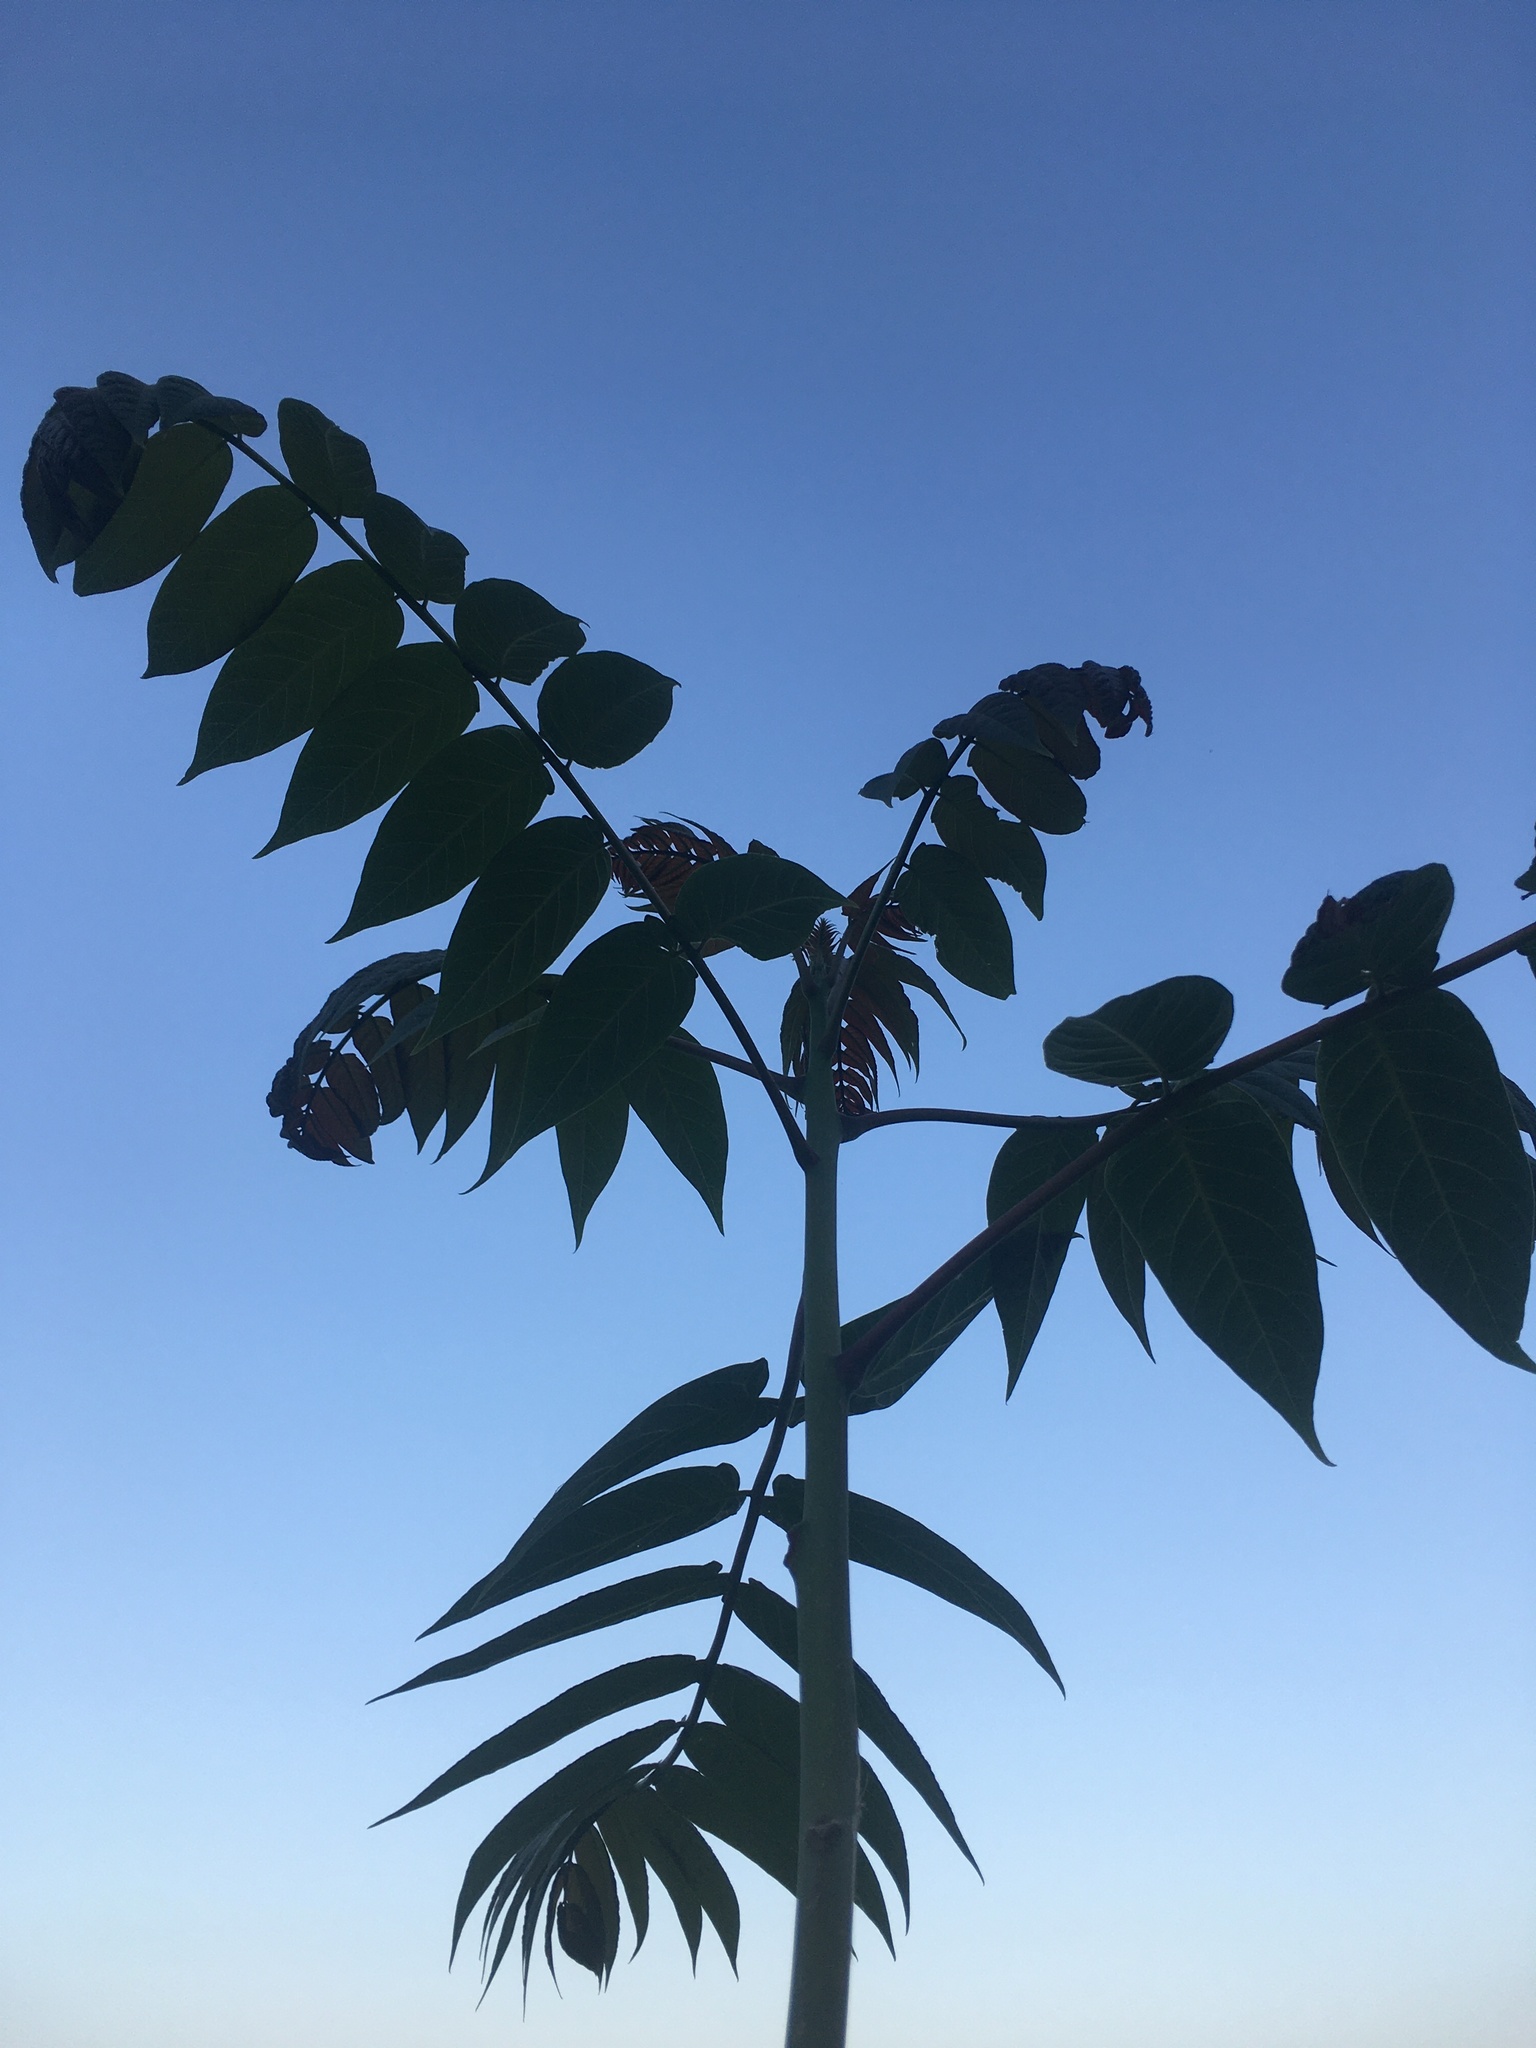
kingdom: Plantae
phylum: Tracheophyta
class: Magnoliopsida
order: Sapindales
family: Simaroubaceae
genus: Ailanthus
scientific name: Ailanthus altissima
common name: Tree-of-heaven
